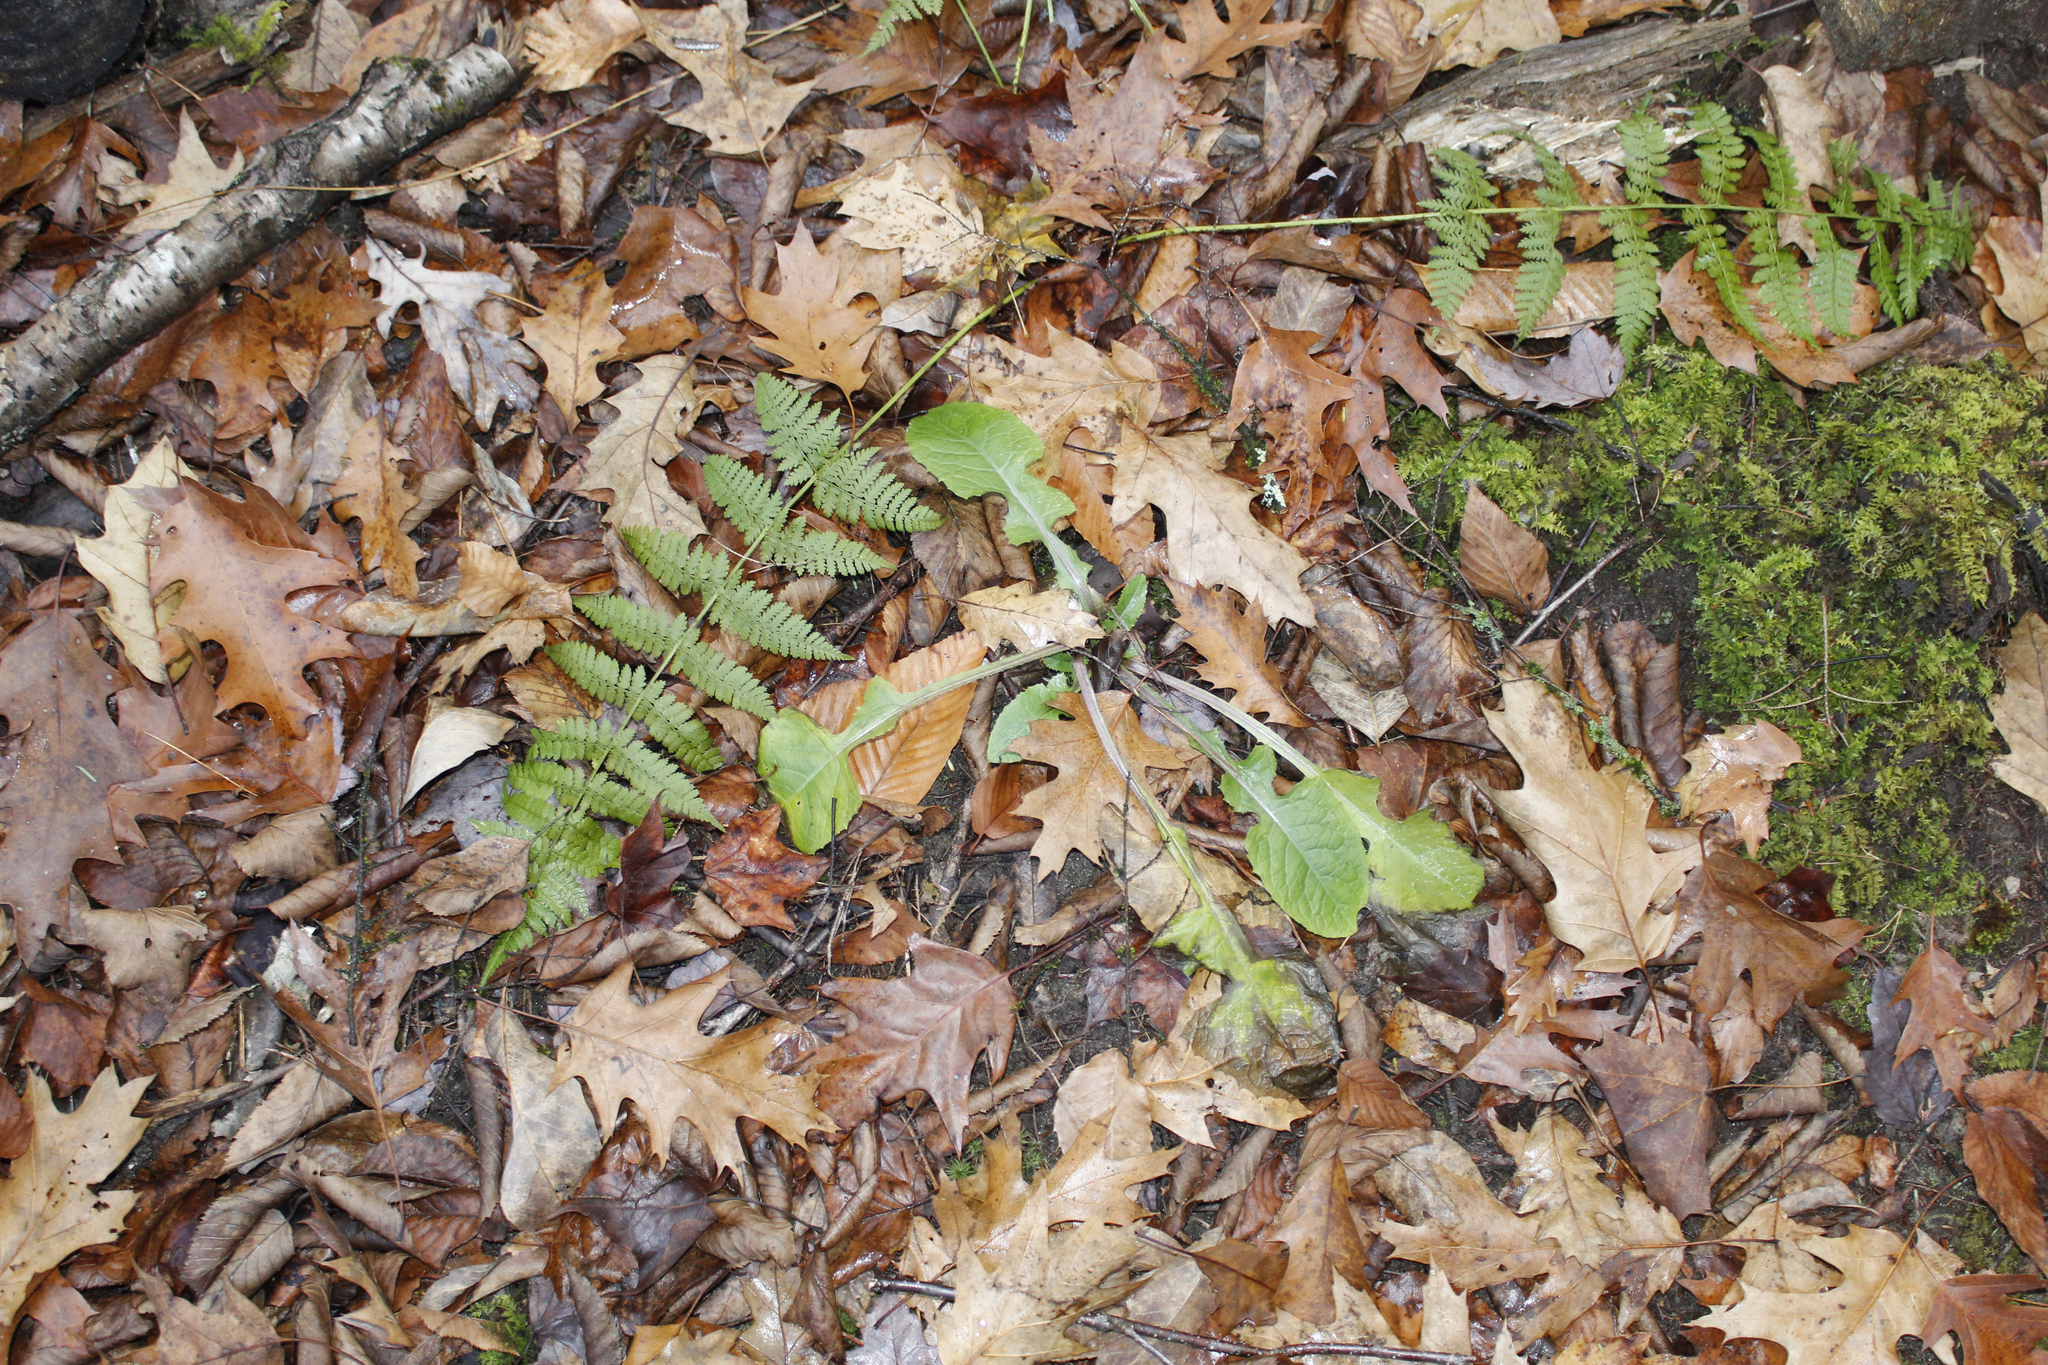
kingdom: Plantae
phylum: Tracheophyta
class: Magnoliopsida
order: Asterales
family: Asteraceae
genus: Lactuca
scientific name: Lactuca
